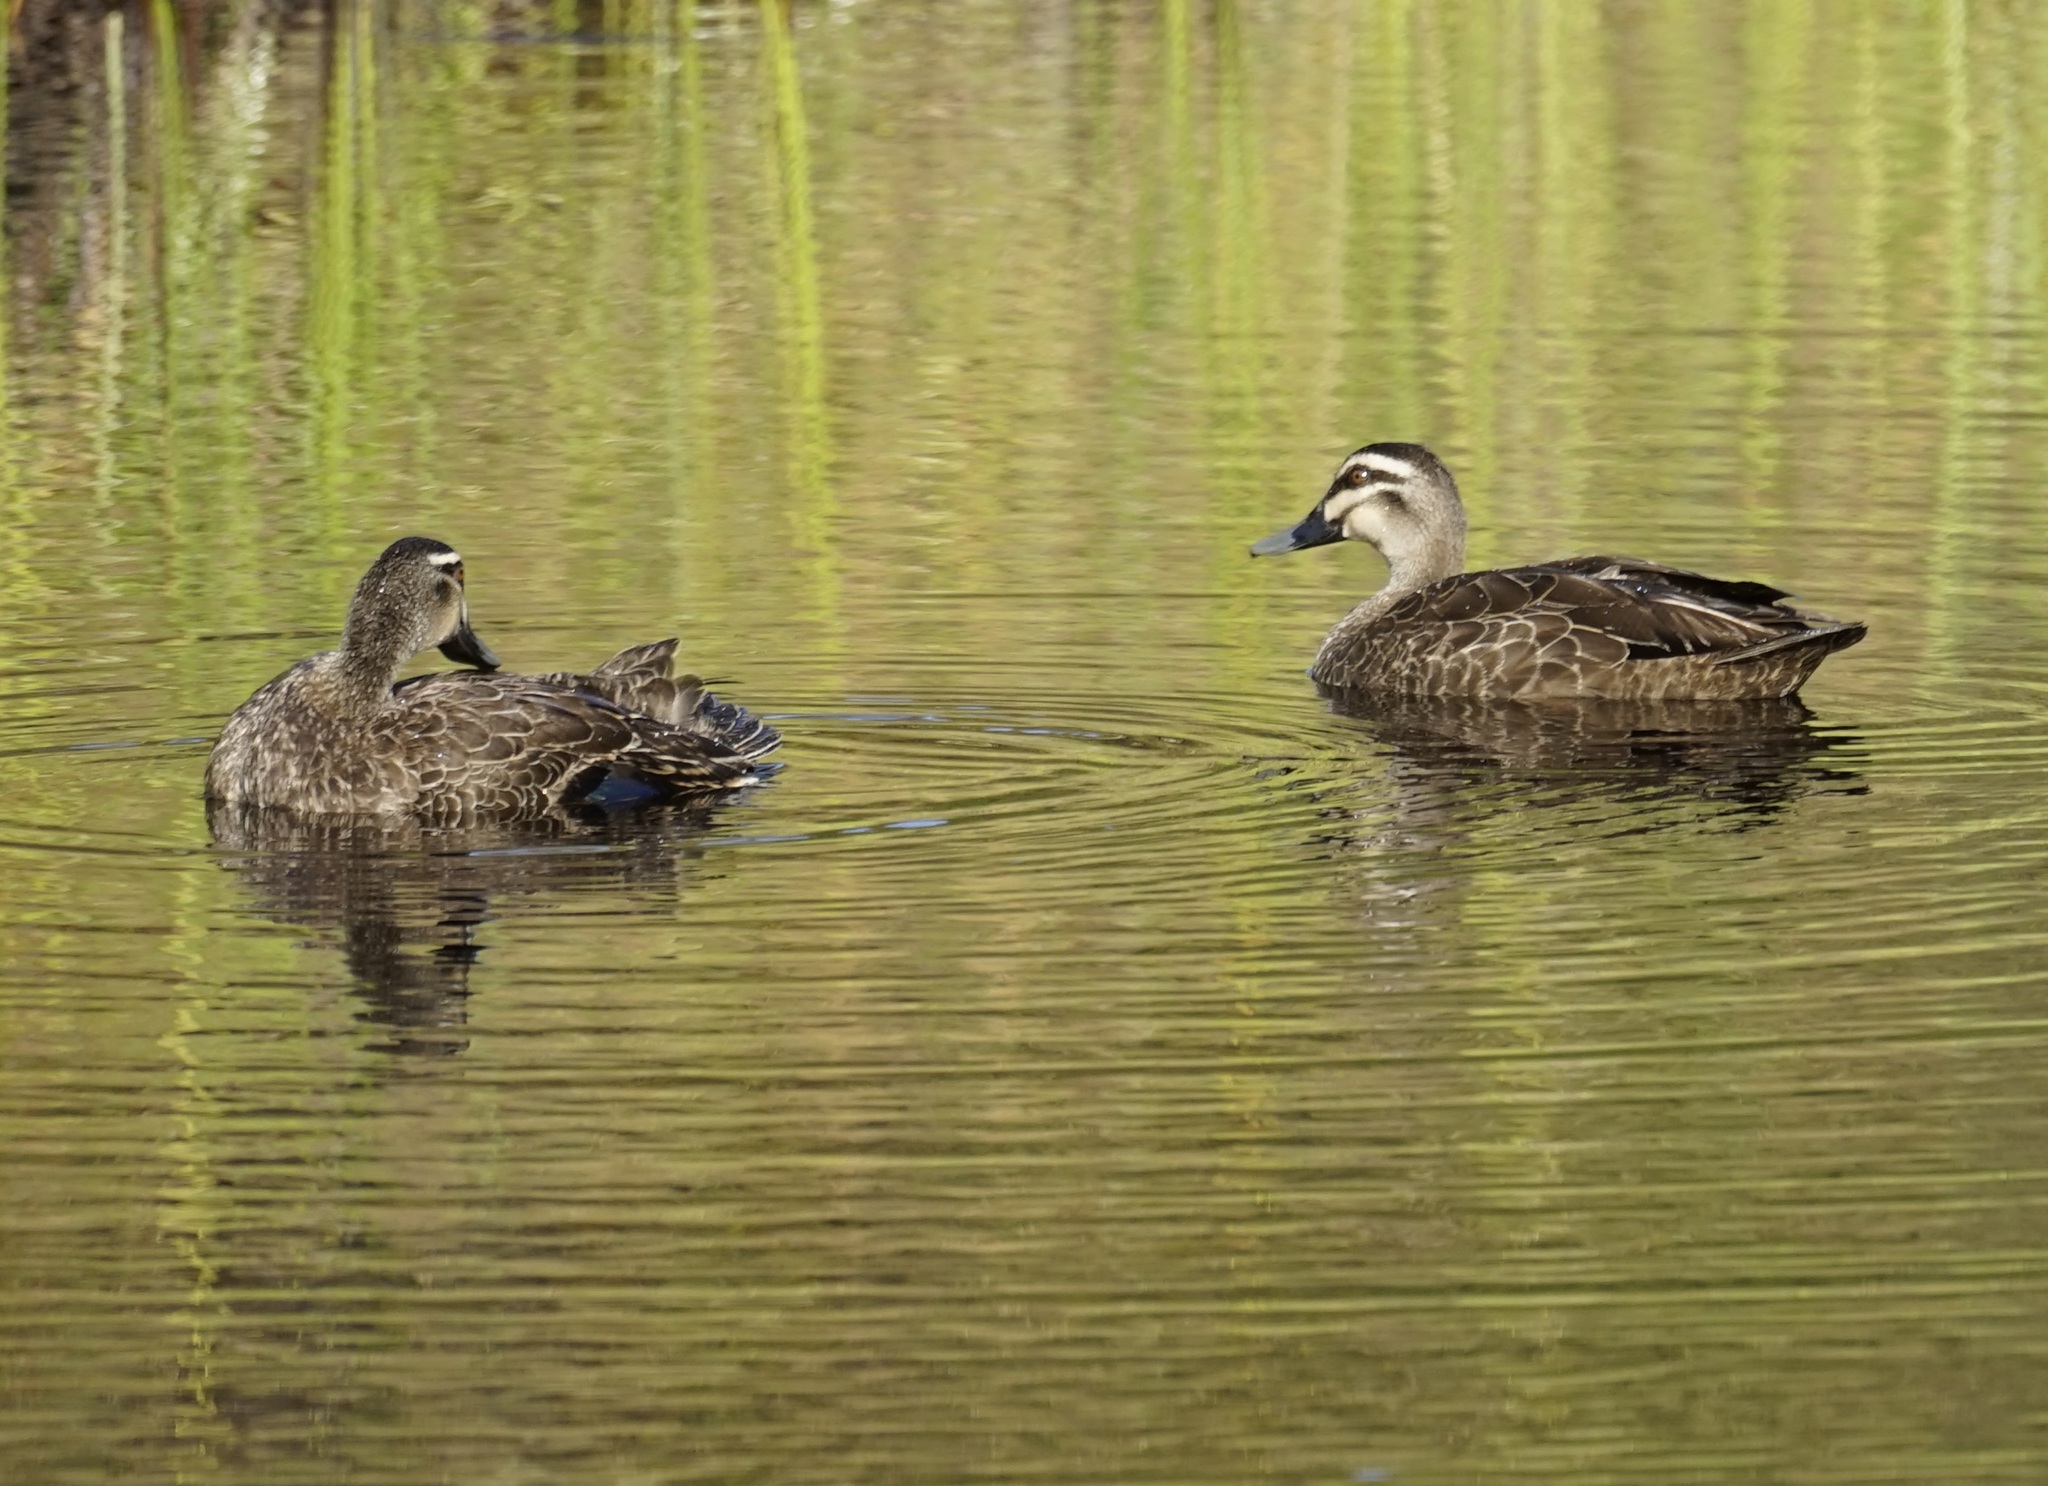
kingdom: Animalia
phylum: Chordata
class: Aves
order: Anseriformes
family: Anatidae
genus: Anas
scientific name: Anas superciliosa
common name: Pacific black duck
